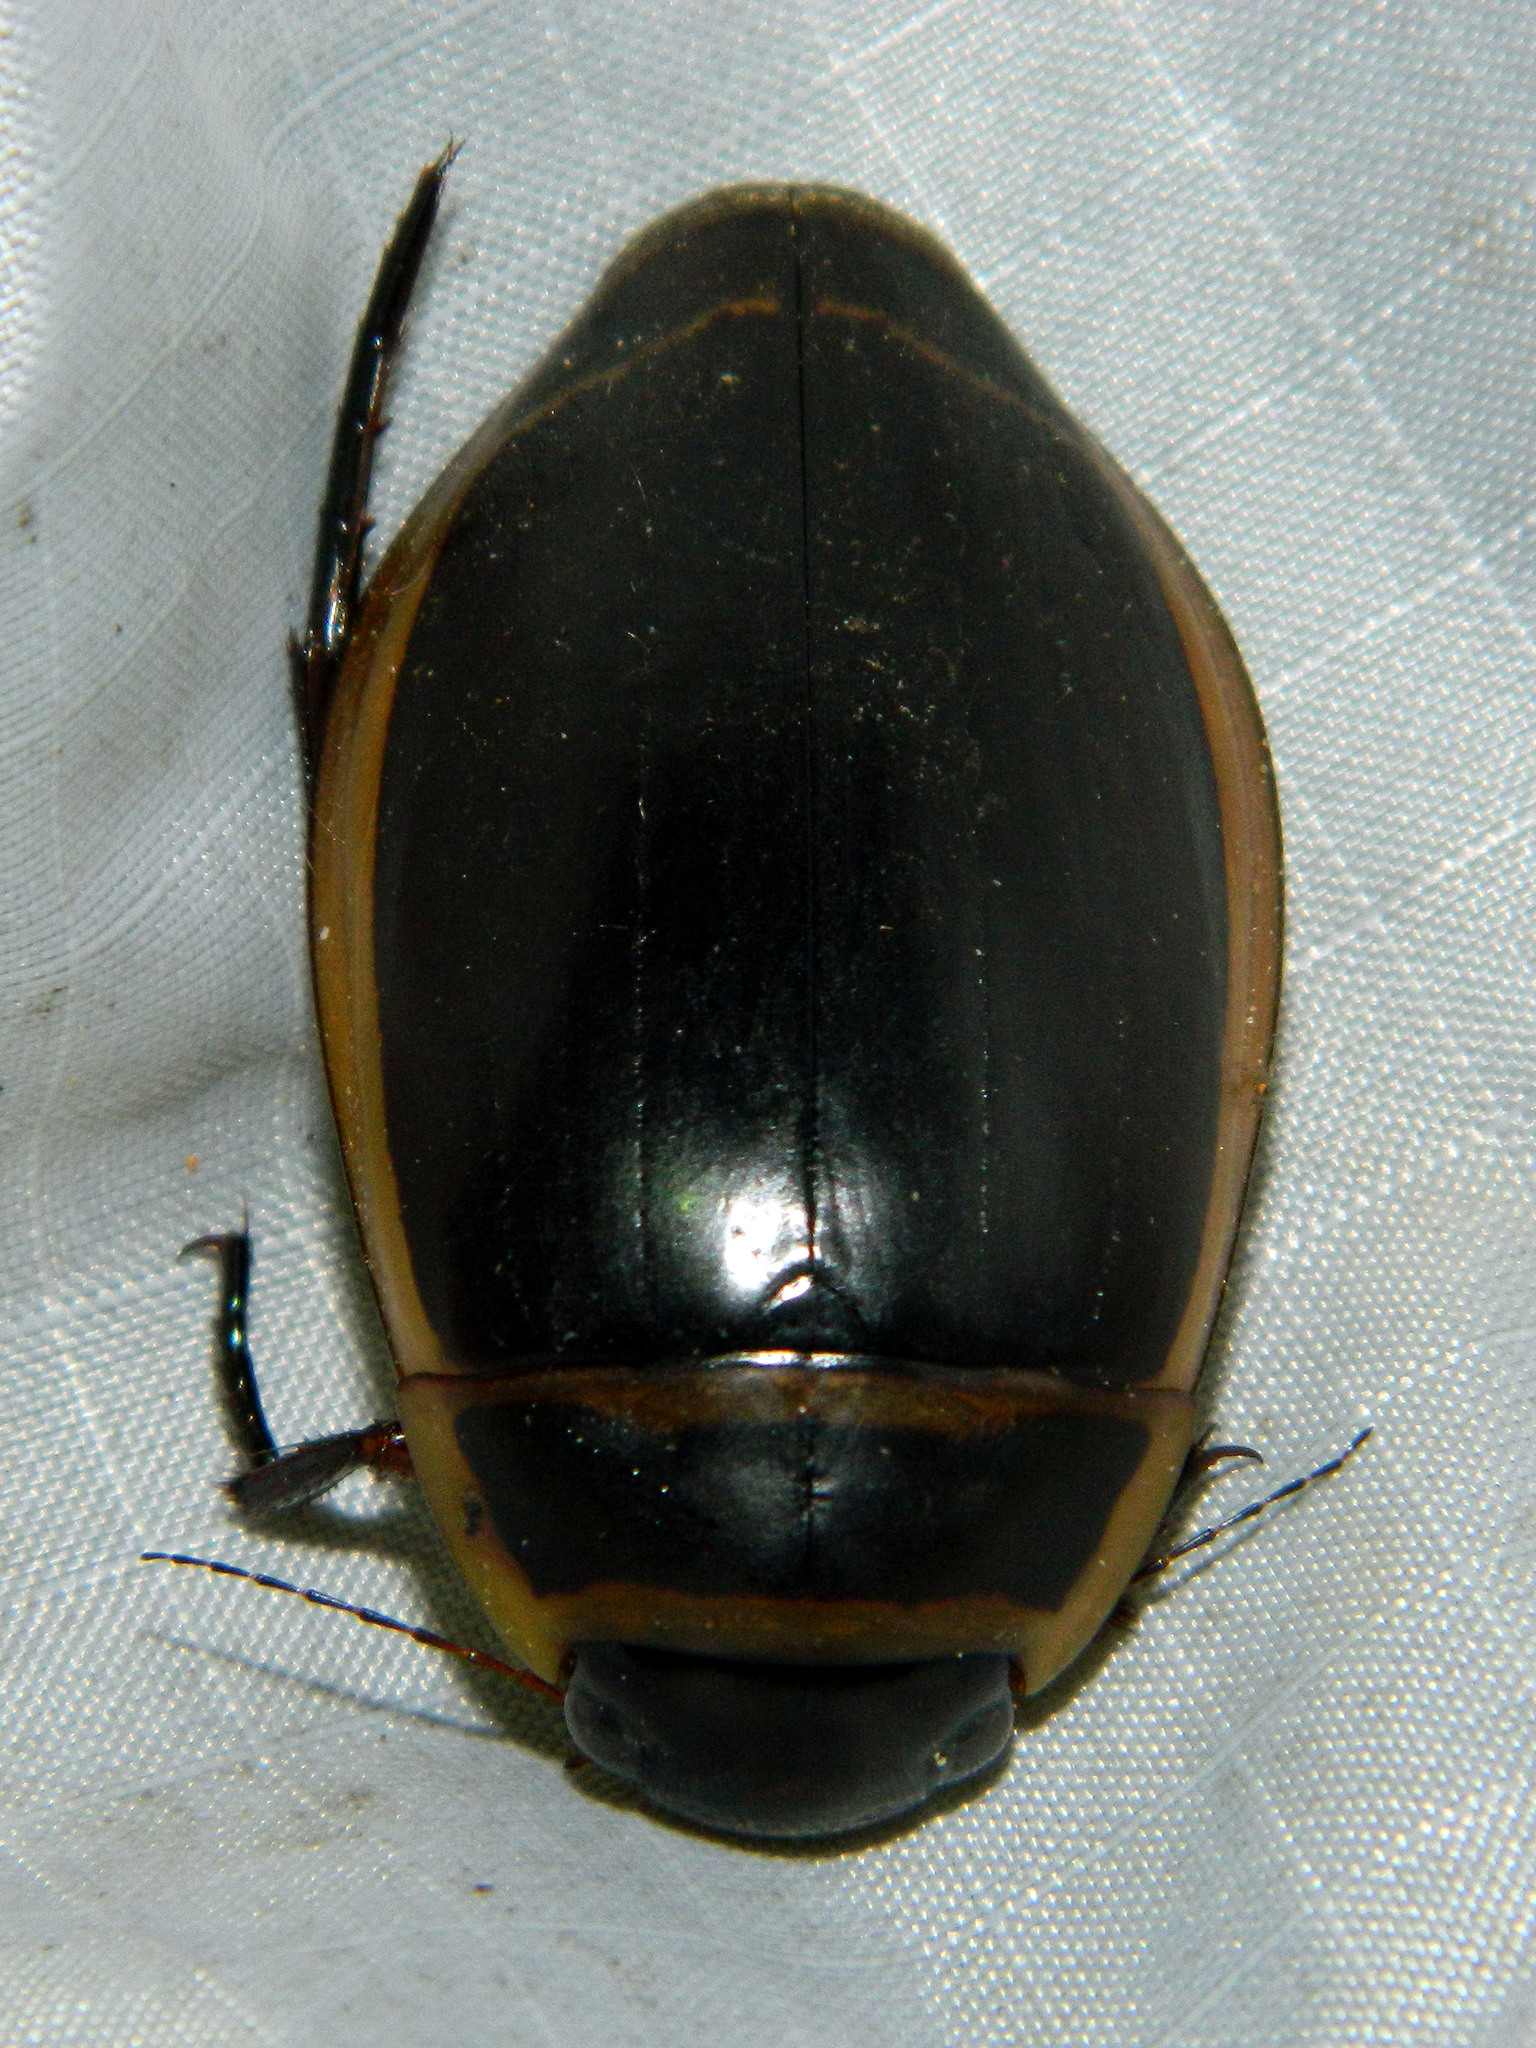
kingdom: Animalia
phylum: Arthropoda
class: Insecta
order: Coleoptera
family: Dytiscidae
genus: Dytiscus
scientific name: Dytiscus harrisii
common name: Harris's diving beetle
